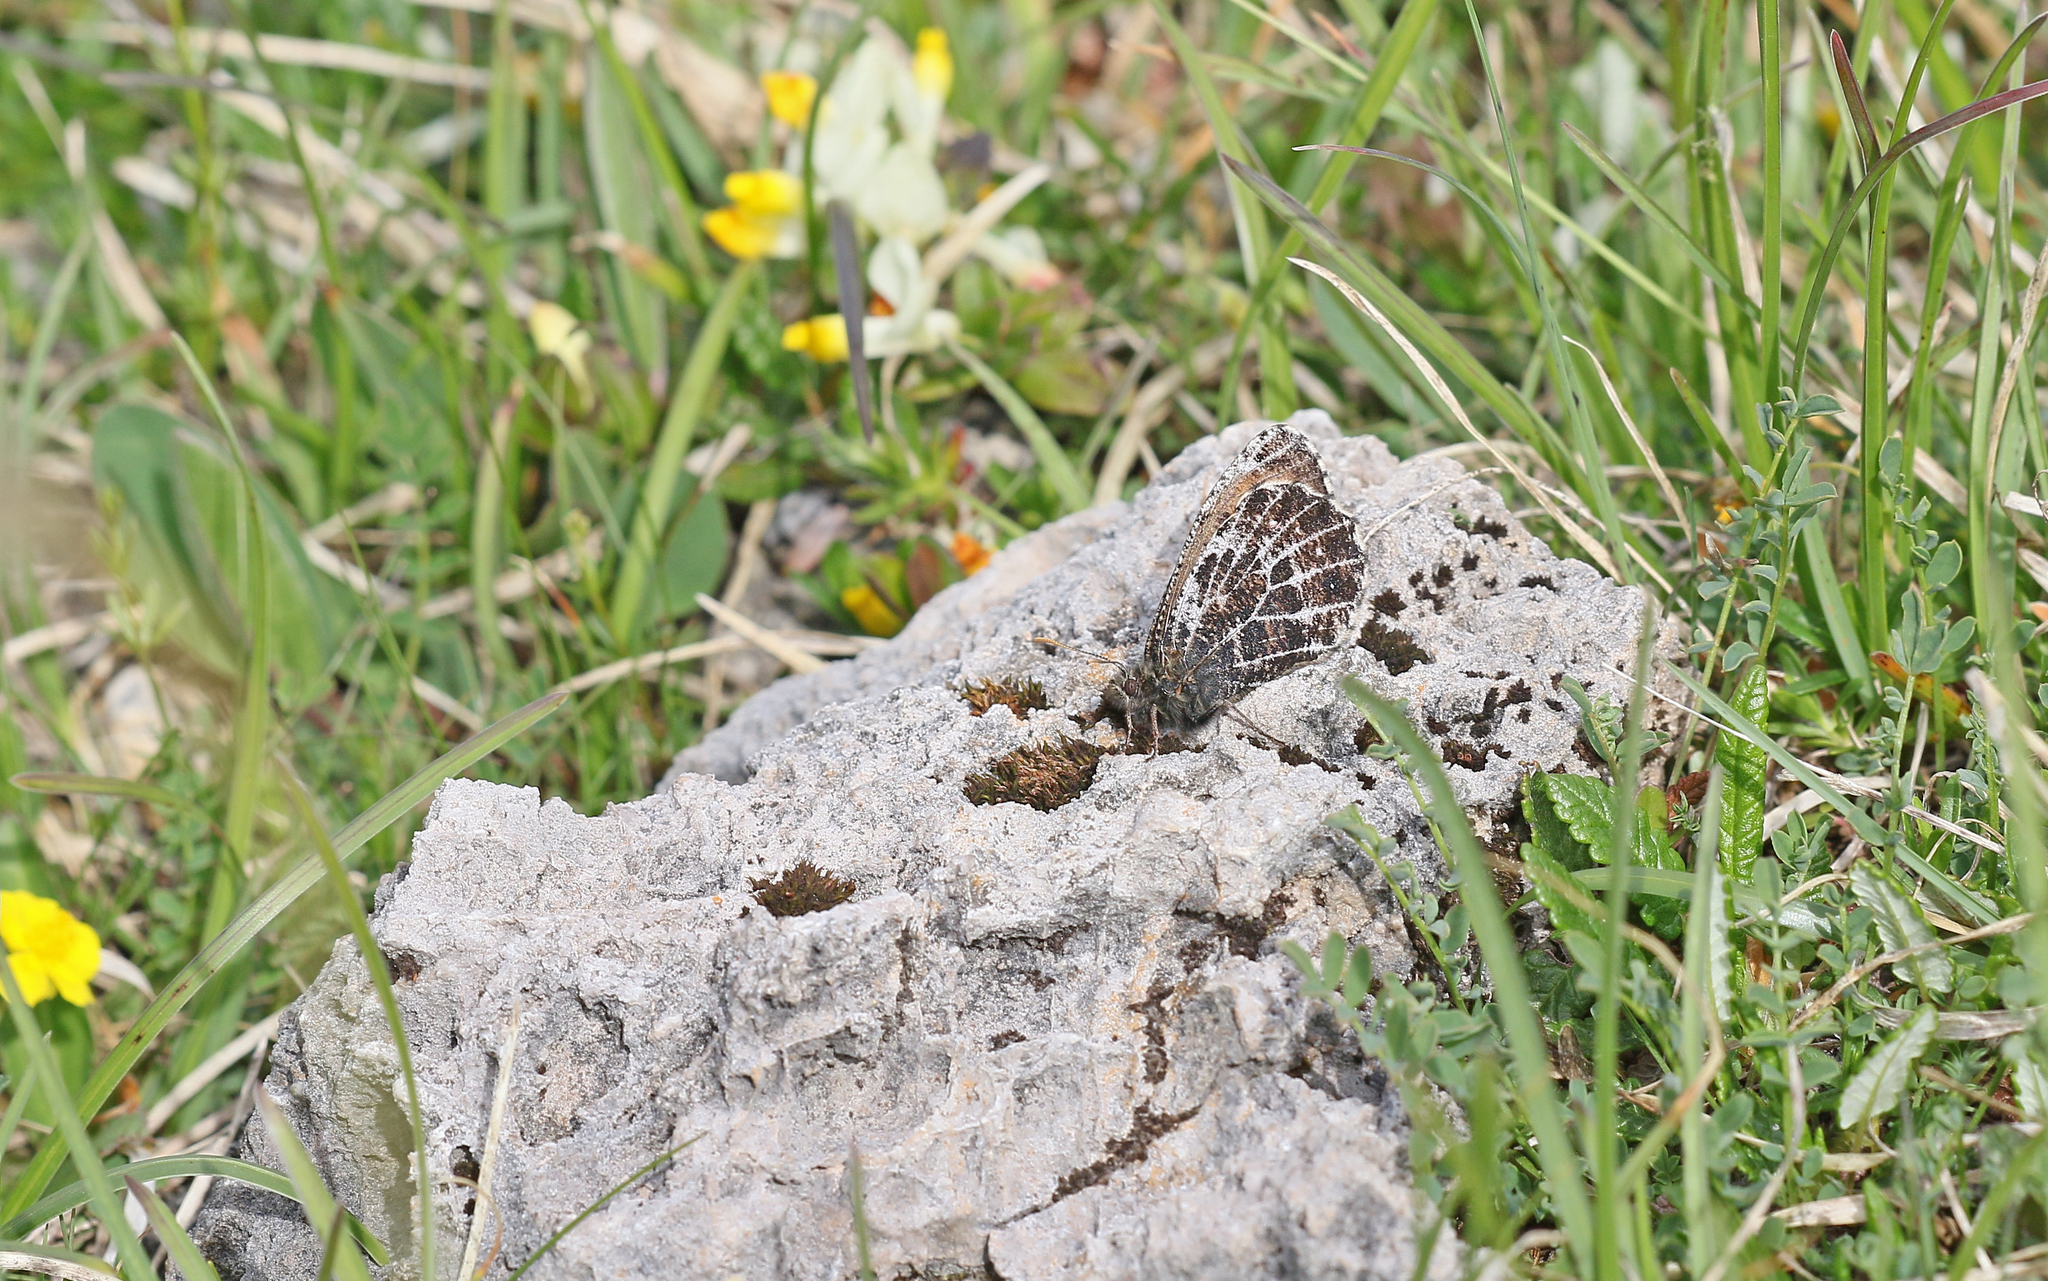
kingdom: Animalia
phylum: Arthropoda
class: Insecta
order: Lepidoptera
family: Nymphalidae
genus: Oeneis
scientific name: Oeneis aello
